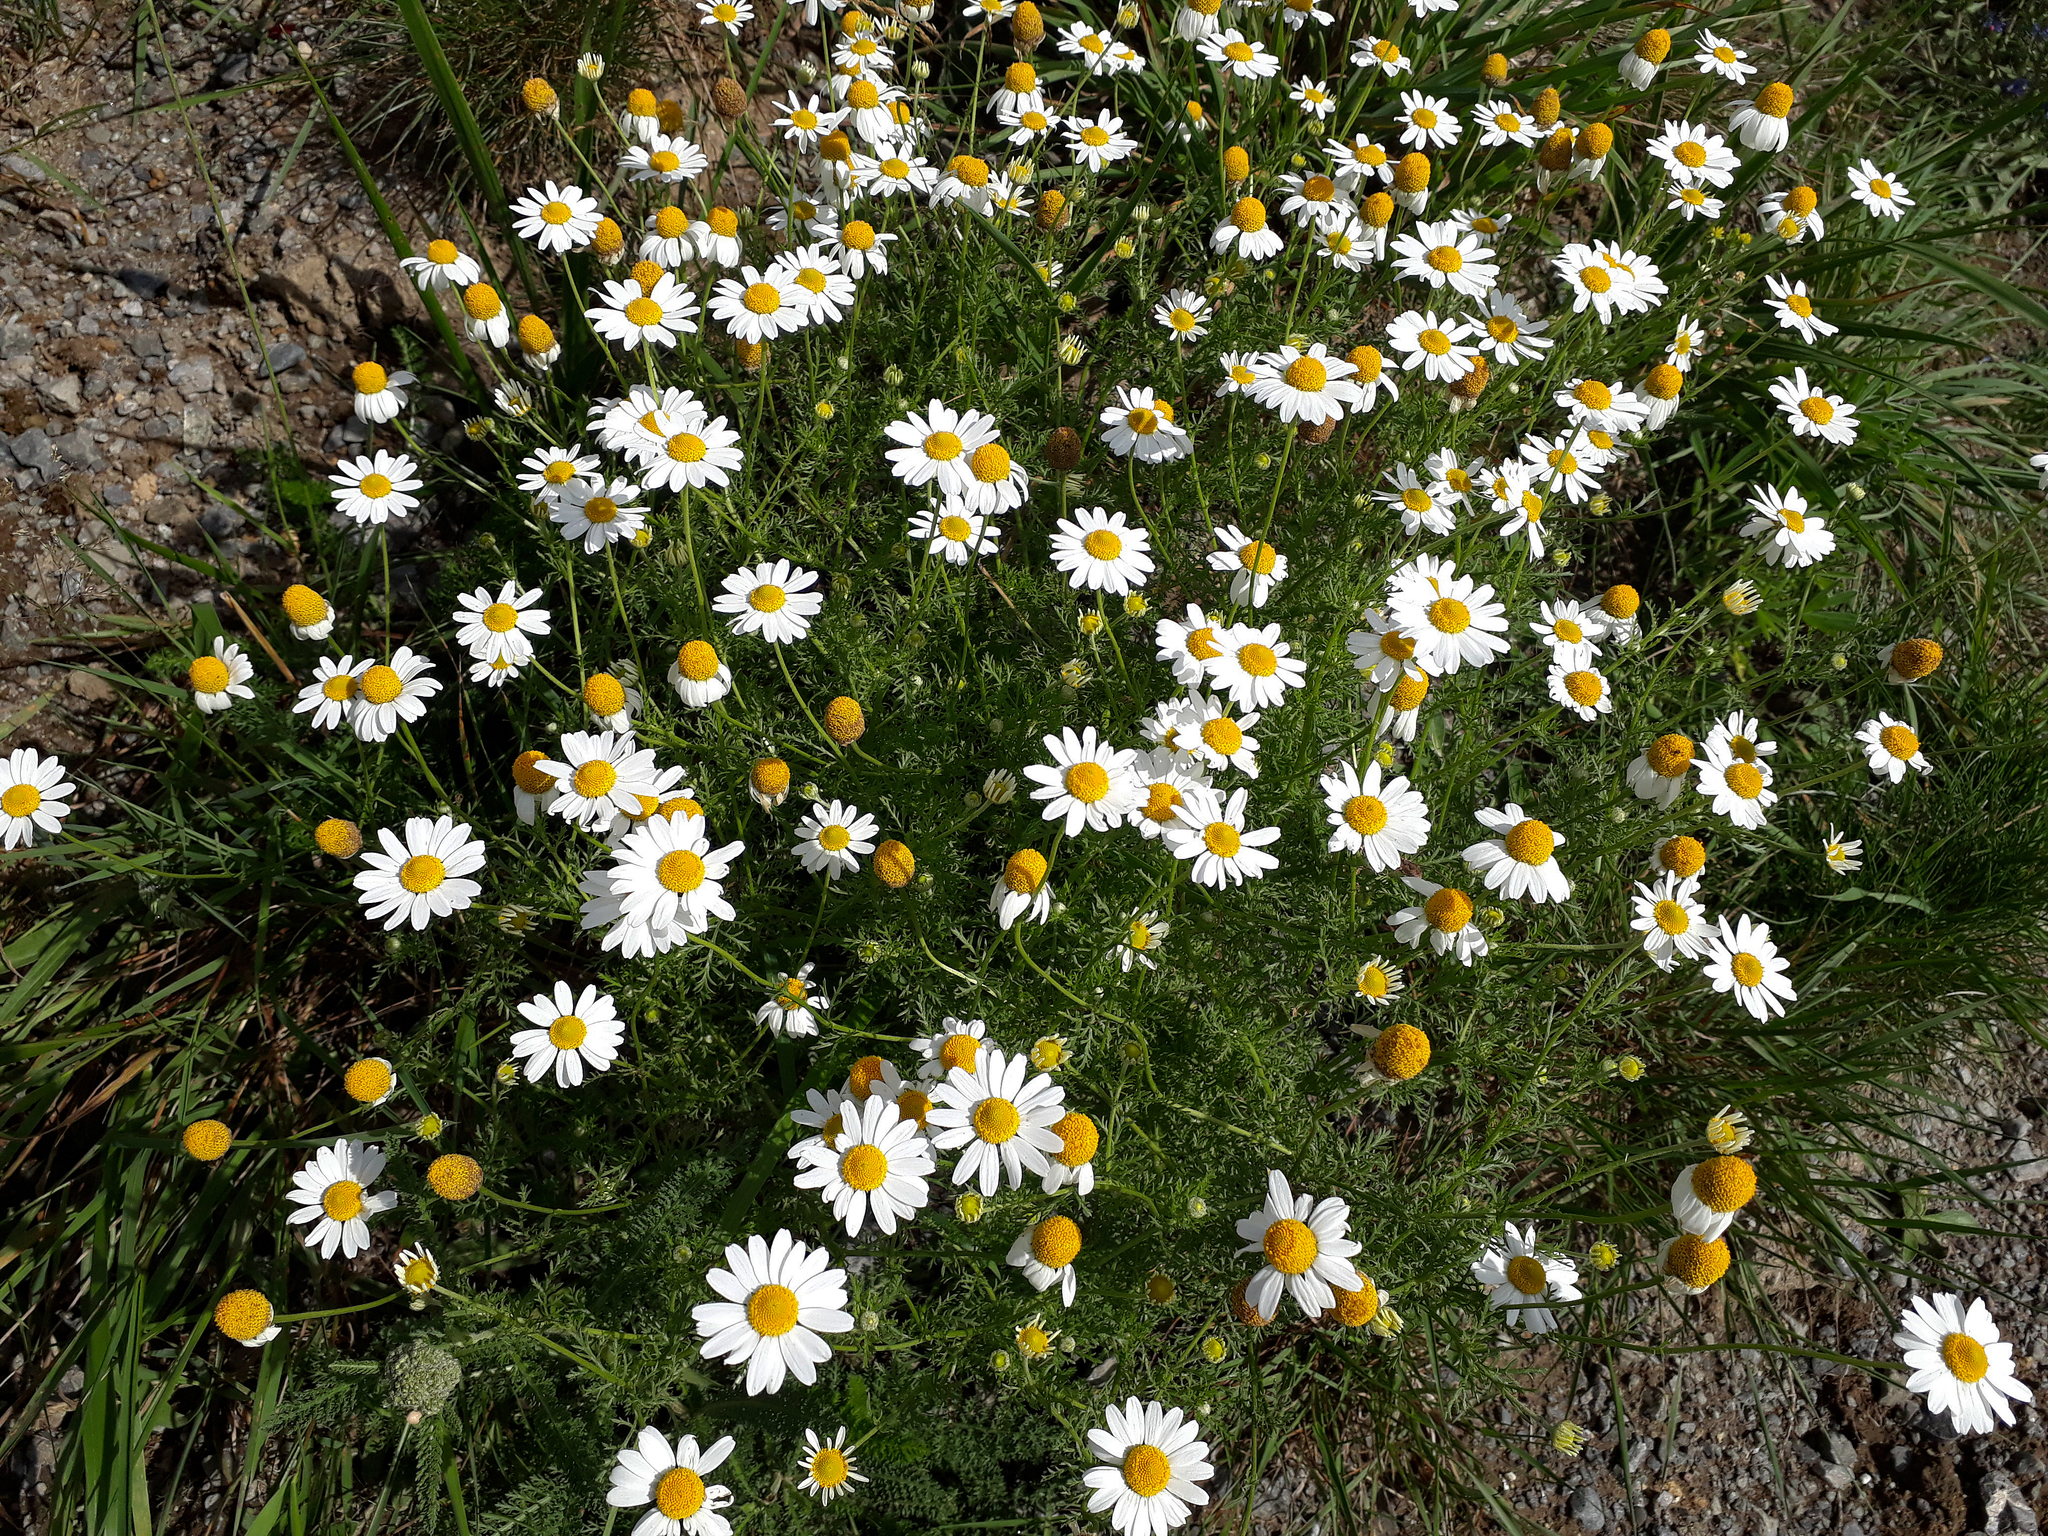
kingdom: Plantae
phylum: Tracheophyta
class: Magnoliopsida
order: Asterales
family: Asteraceae
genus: Anthemis
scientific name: Anthemis cotula
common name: Stinking chamomile
